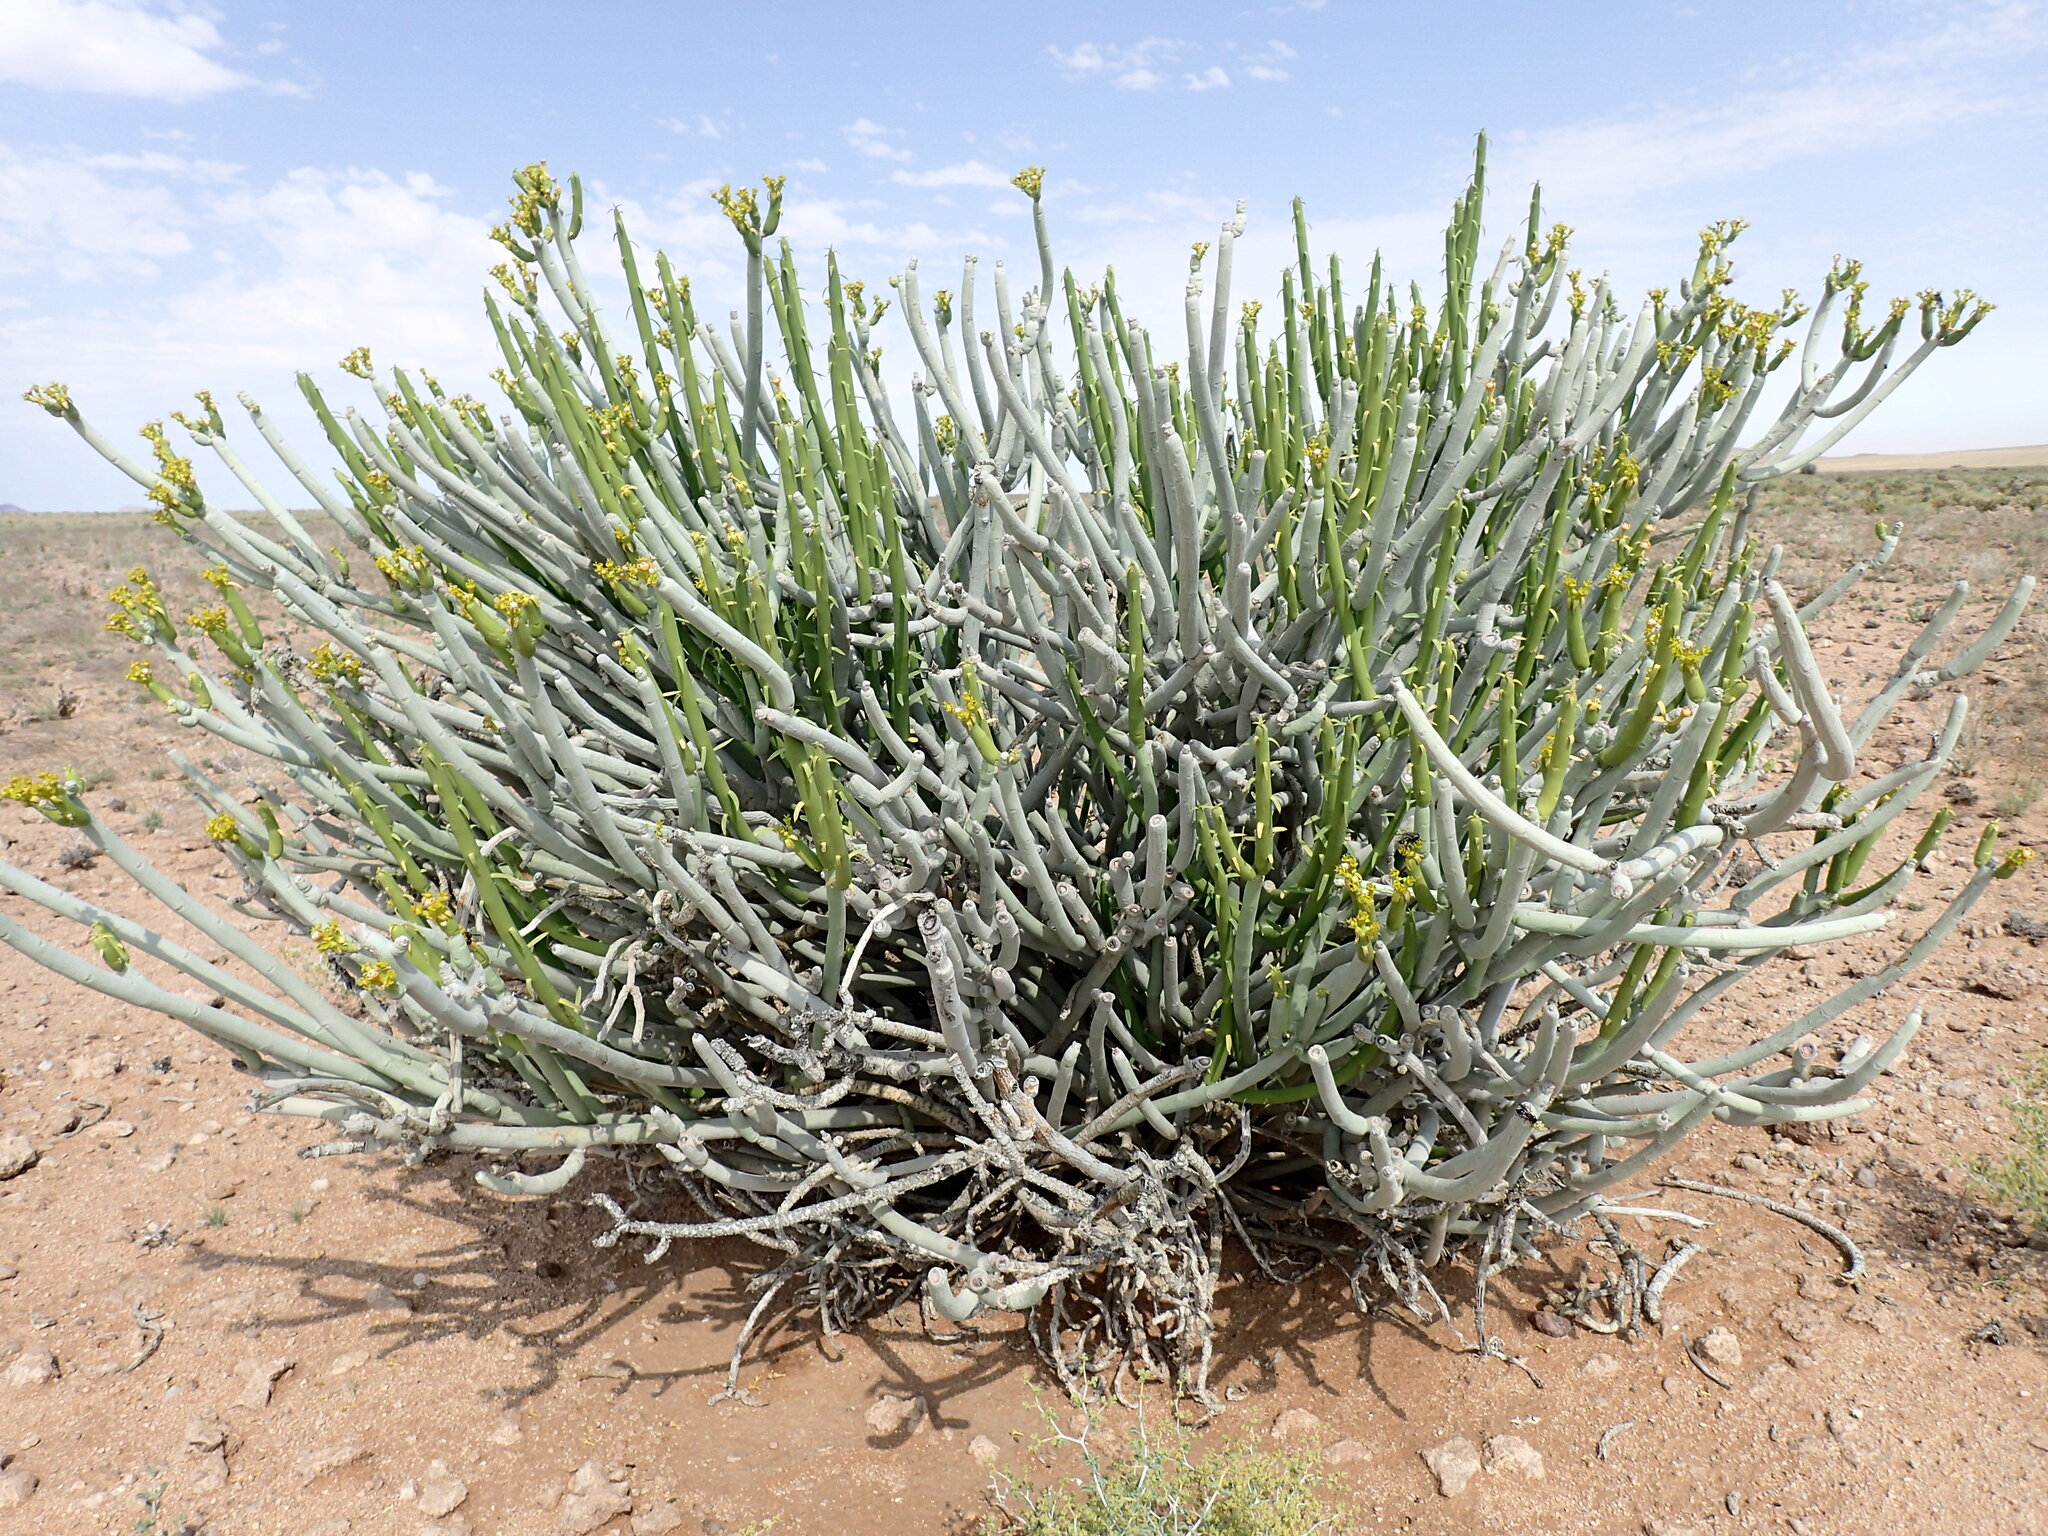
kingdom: Plantae
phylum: Tracheophyta
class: Magnoliopsida
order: Malpighiales
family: Euphorbiaceae
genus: Euphorbia
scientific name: Euphorbia mauritanica
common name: Jackal's-food
